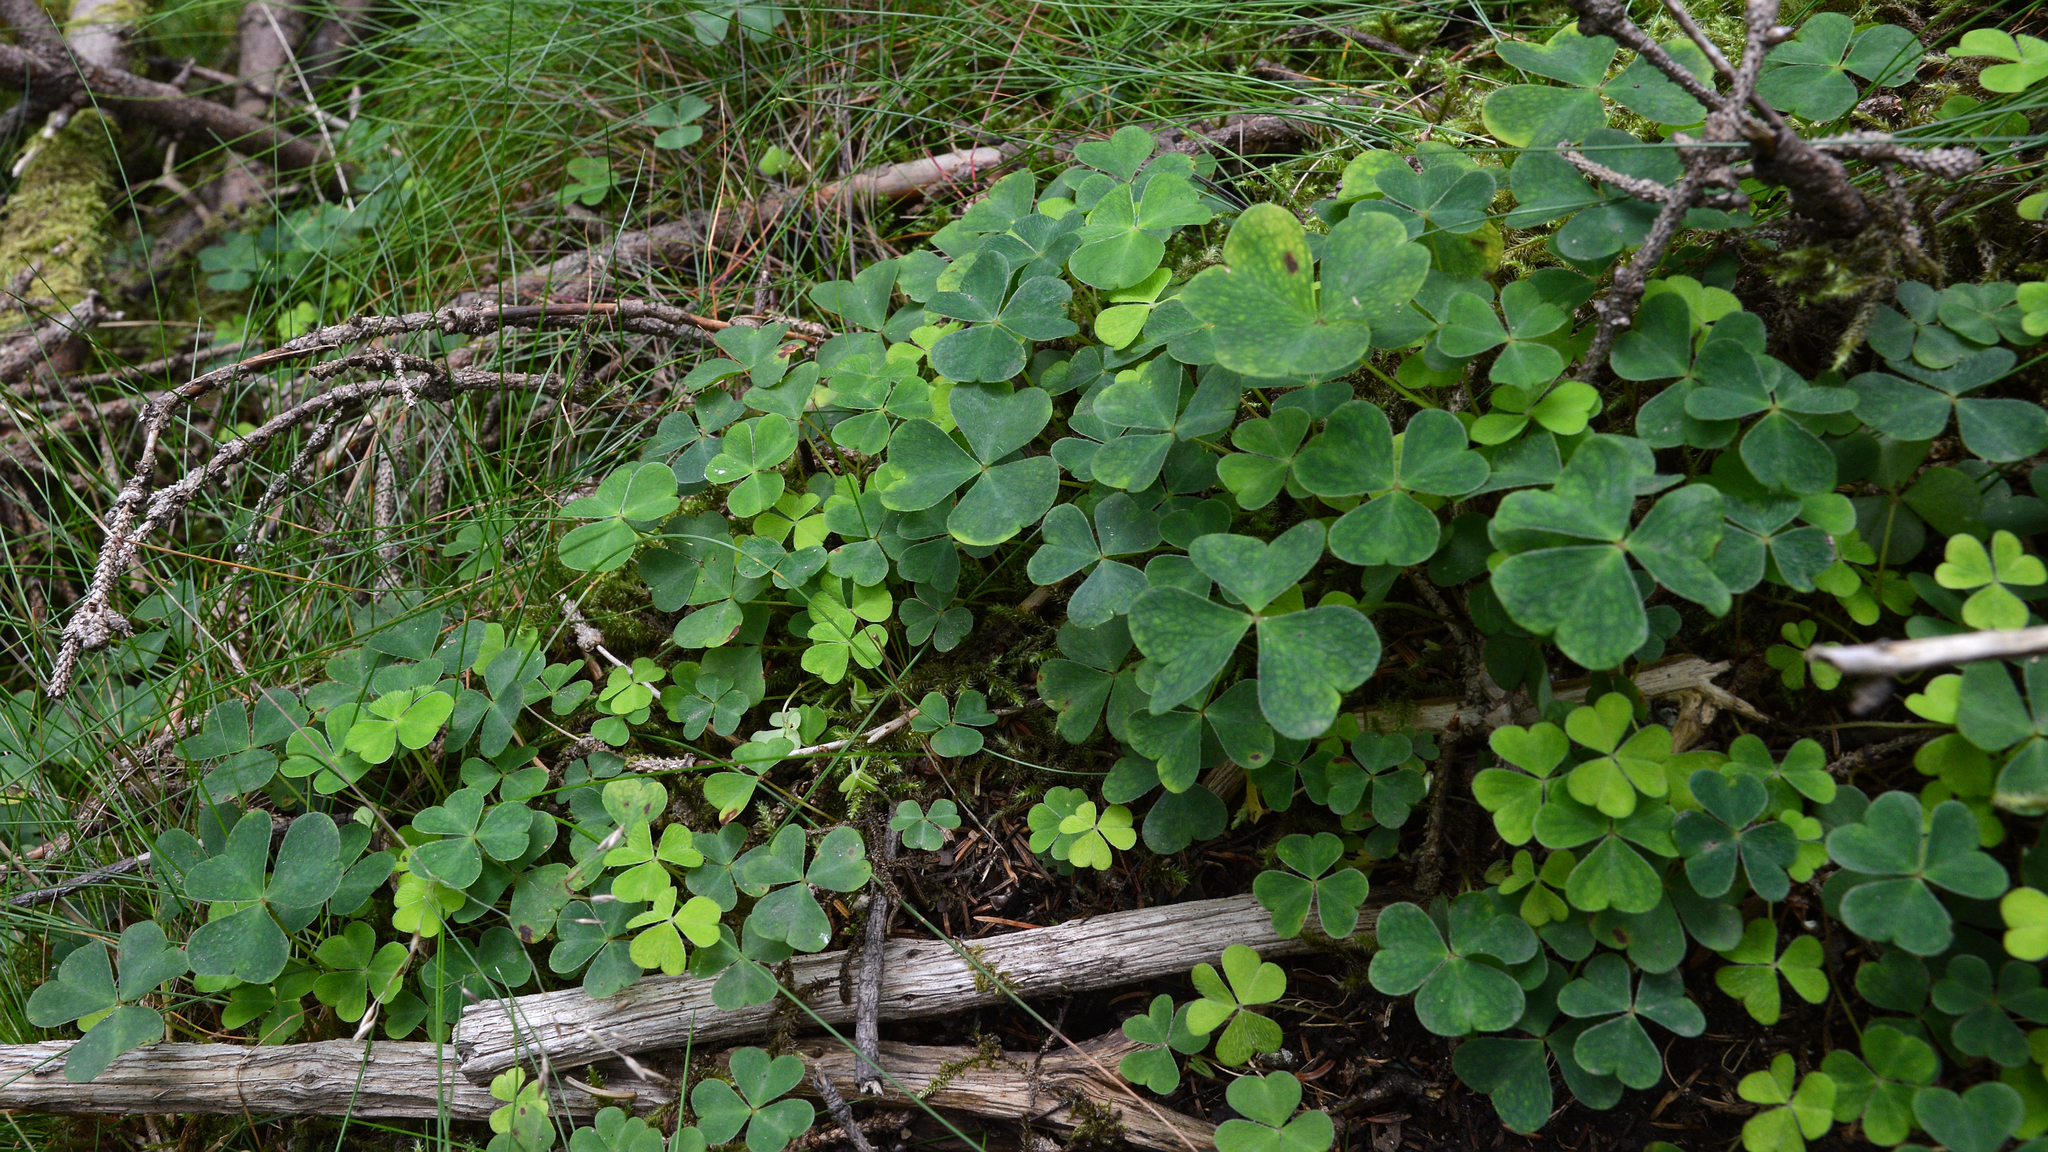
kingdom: Plantae
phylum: Tracheophyta
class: Magnoliopsida
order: Oxalidales
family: Oxalidaceae
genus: Oxalis
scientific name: Oxalis acetosella
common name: Wood-sorrel
